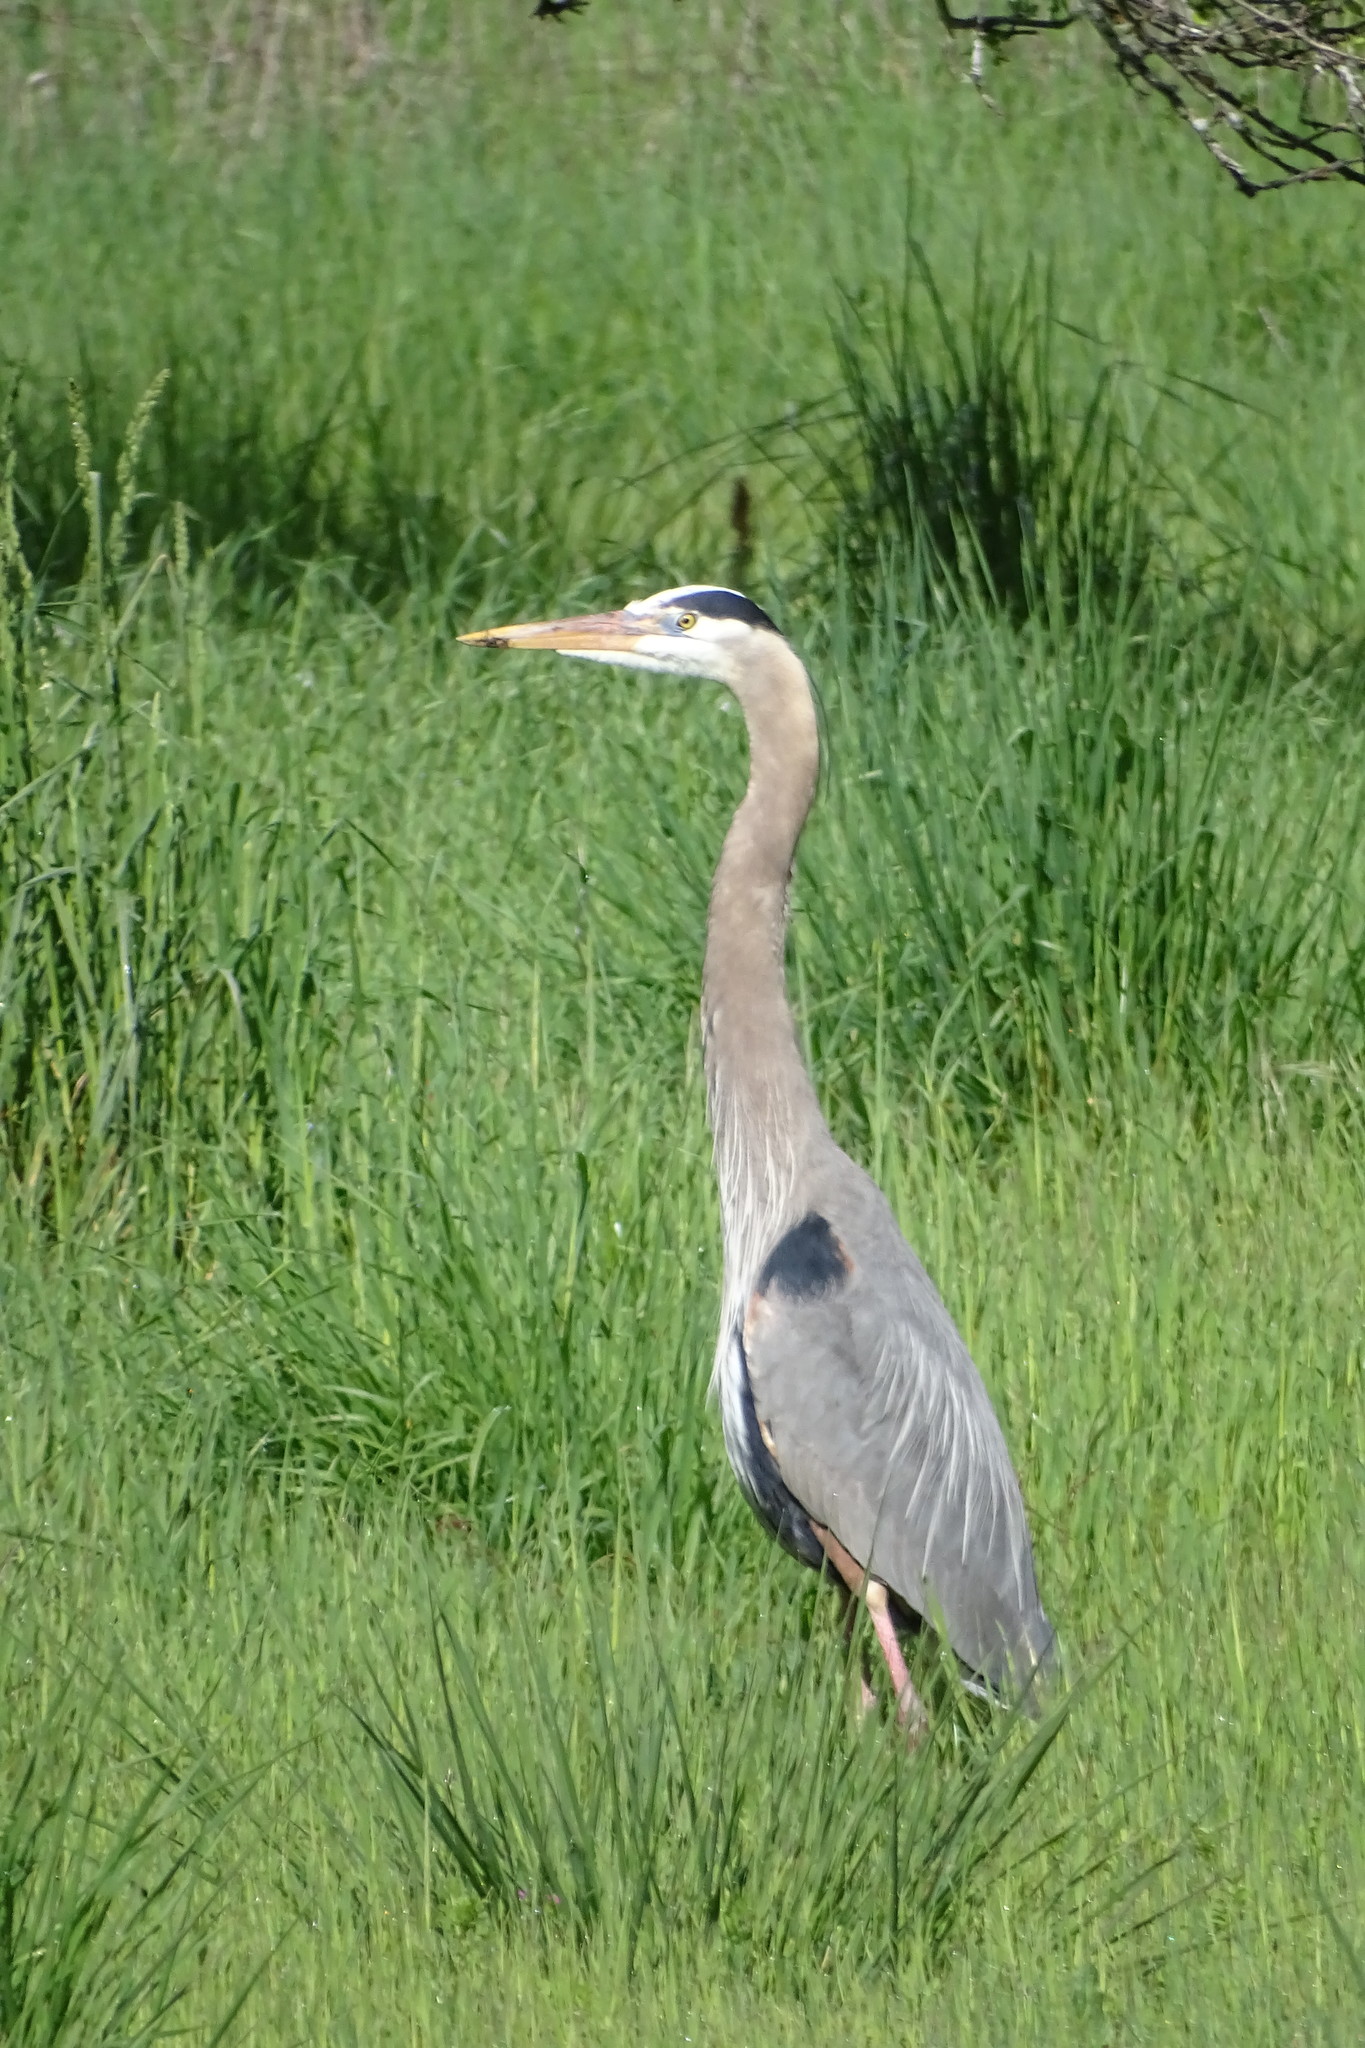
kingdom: Animalia
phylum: Chordata
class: Aves
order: Pelecaniformes
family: Ardeidae
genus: Ardea
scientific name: Ardea herodias
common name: Great blue heron
